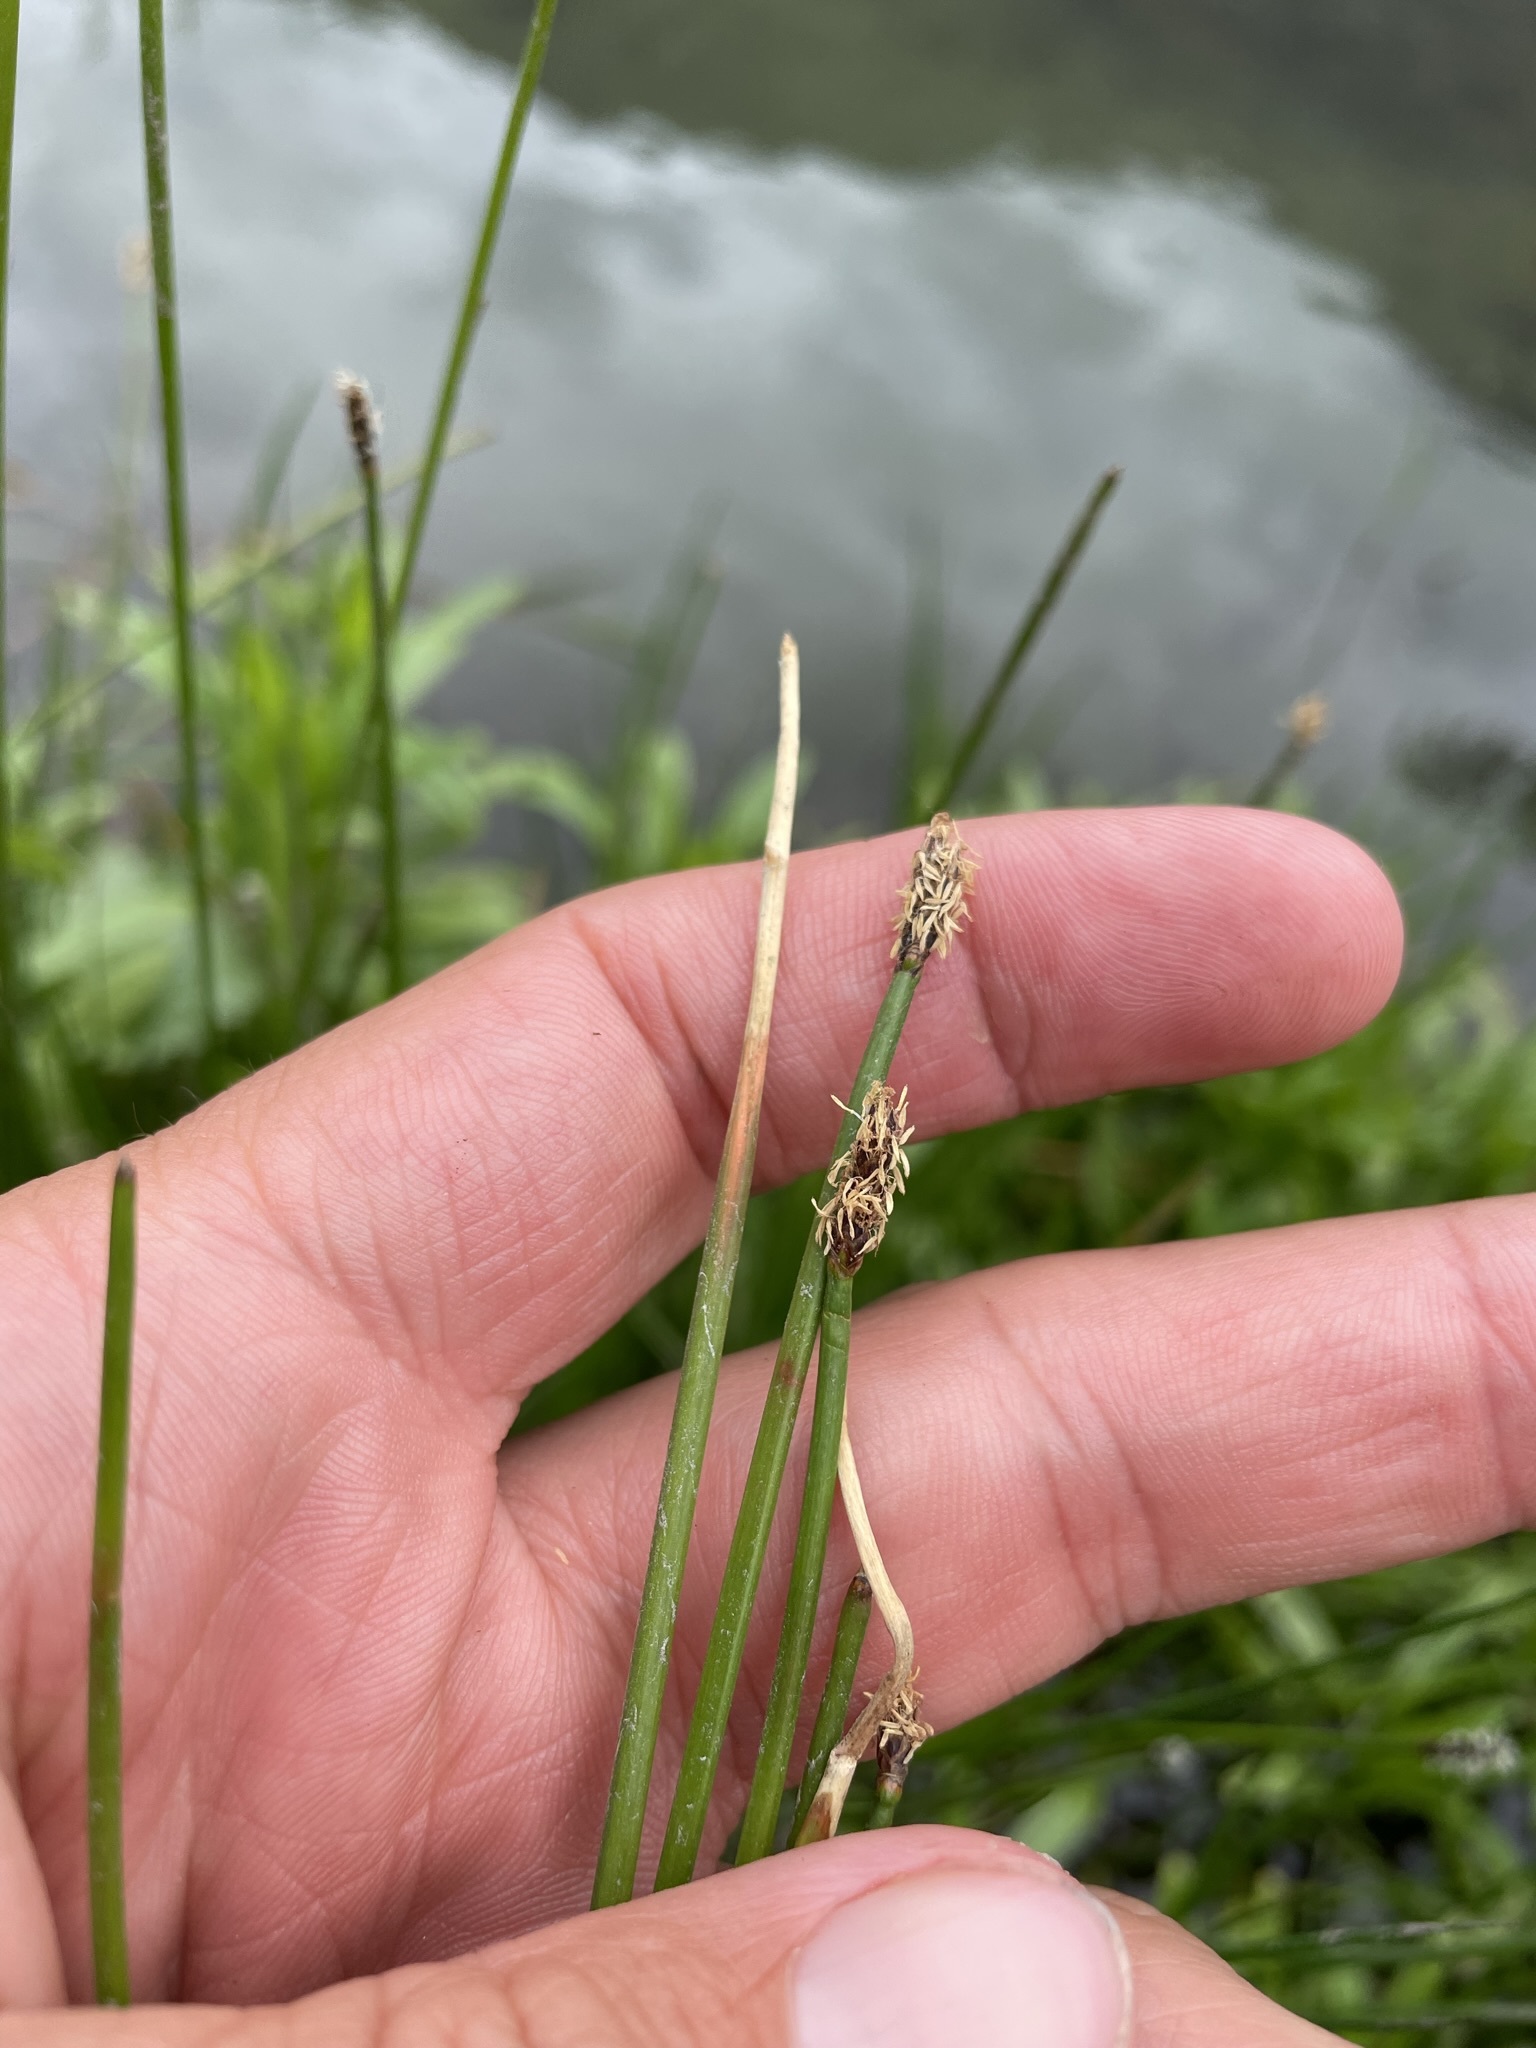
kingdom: Plantae
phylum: Tracheophyta
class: Liliopsida
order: Poales
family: Cyperaceae
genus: Eleocharis
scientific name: Eleocharis acuta
